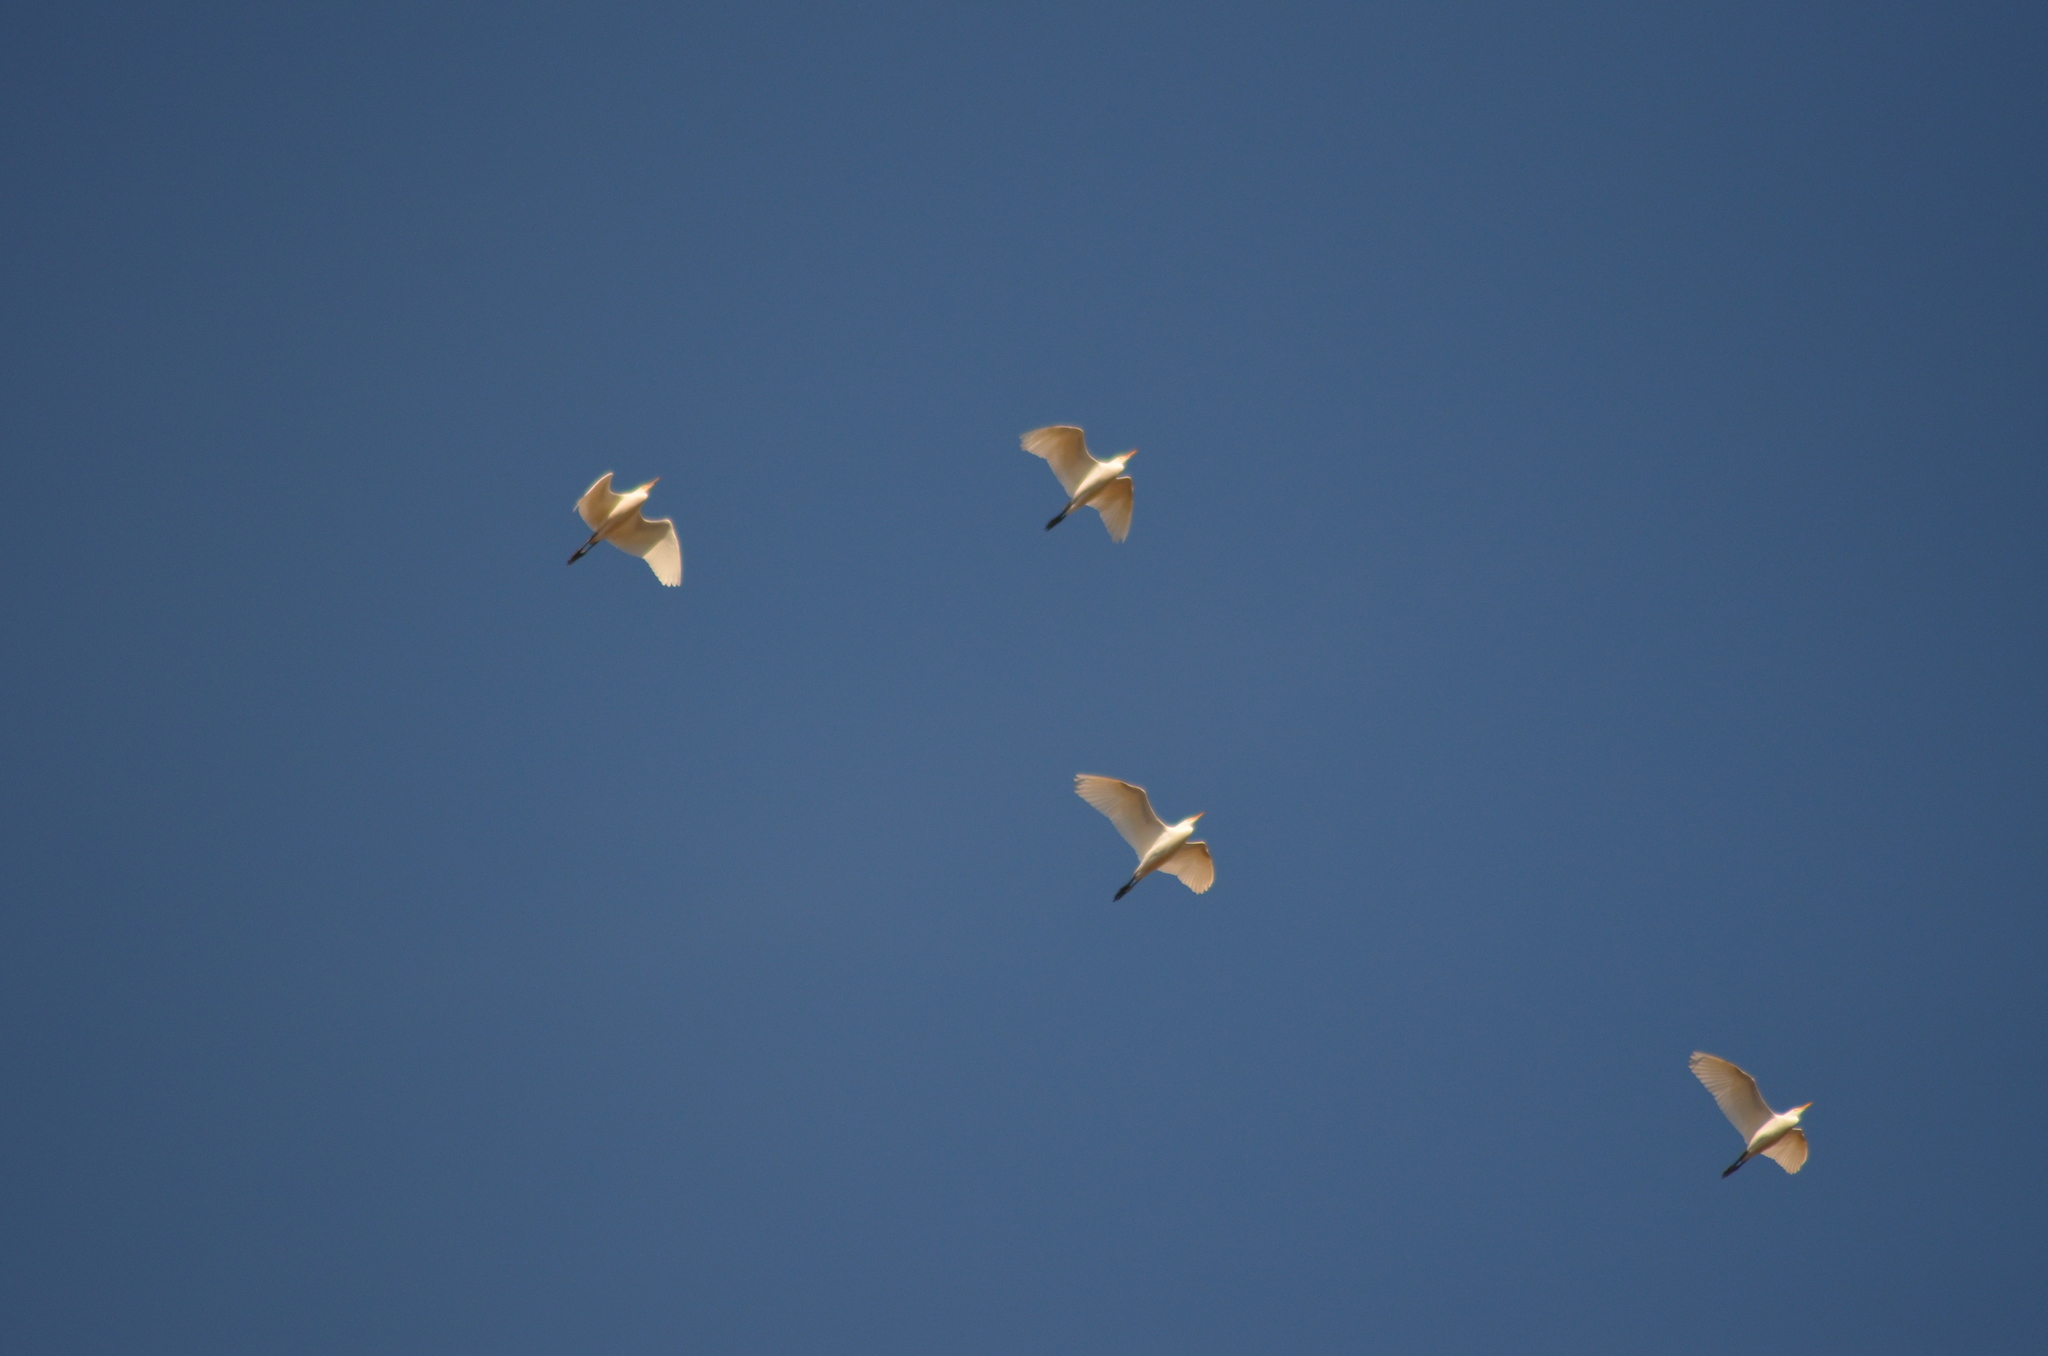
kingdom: Animalia
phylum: Chordata
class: Aves
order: Pelecaniformes
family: Ardeidae
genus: Bubulcus
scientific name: Bubulcus ibis
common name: Cattle egret
